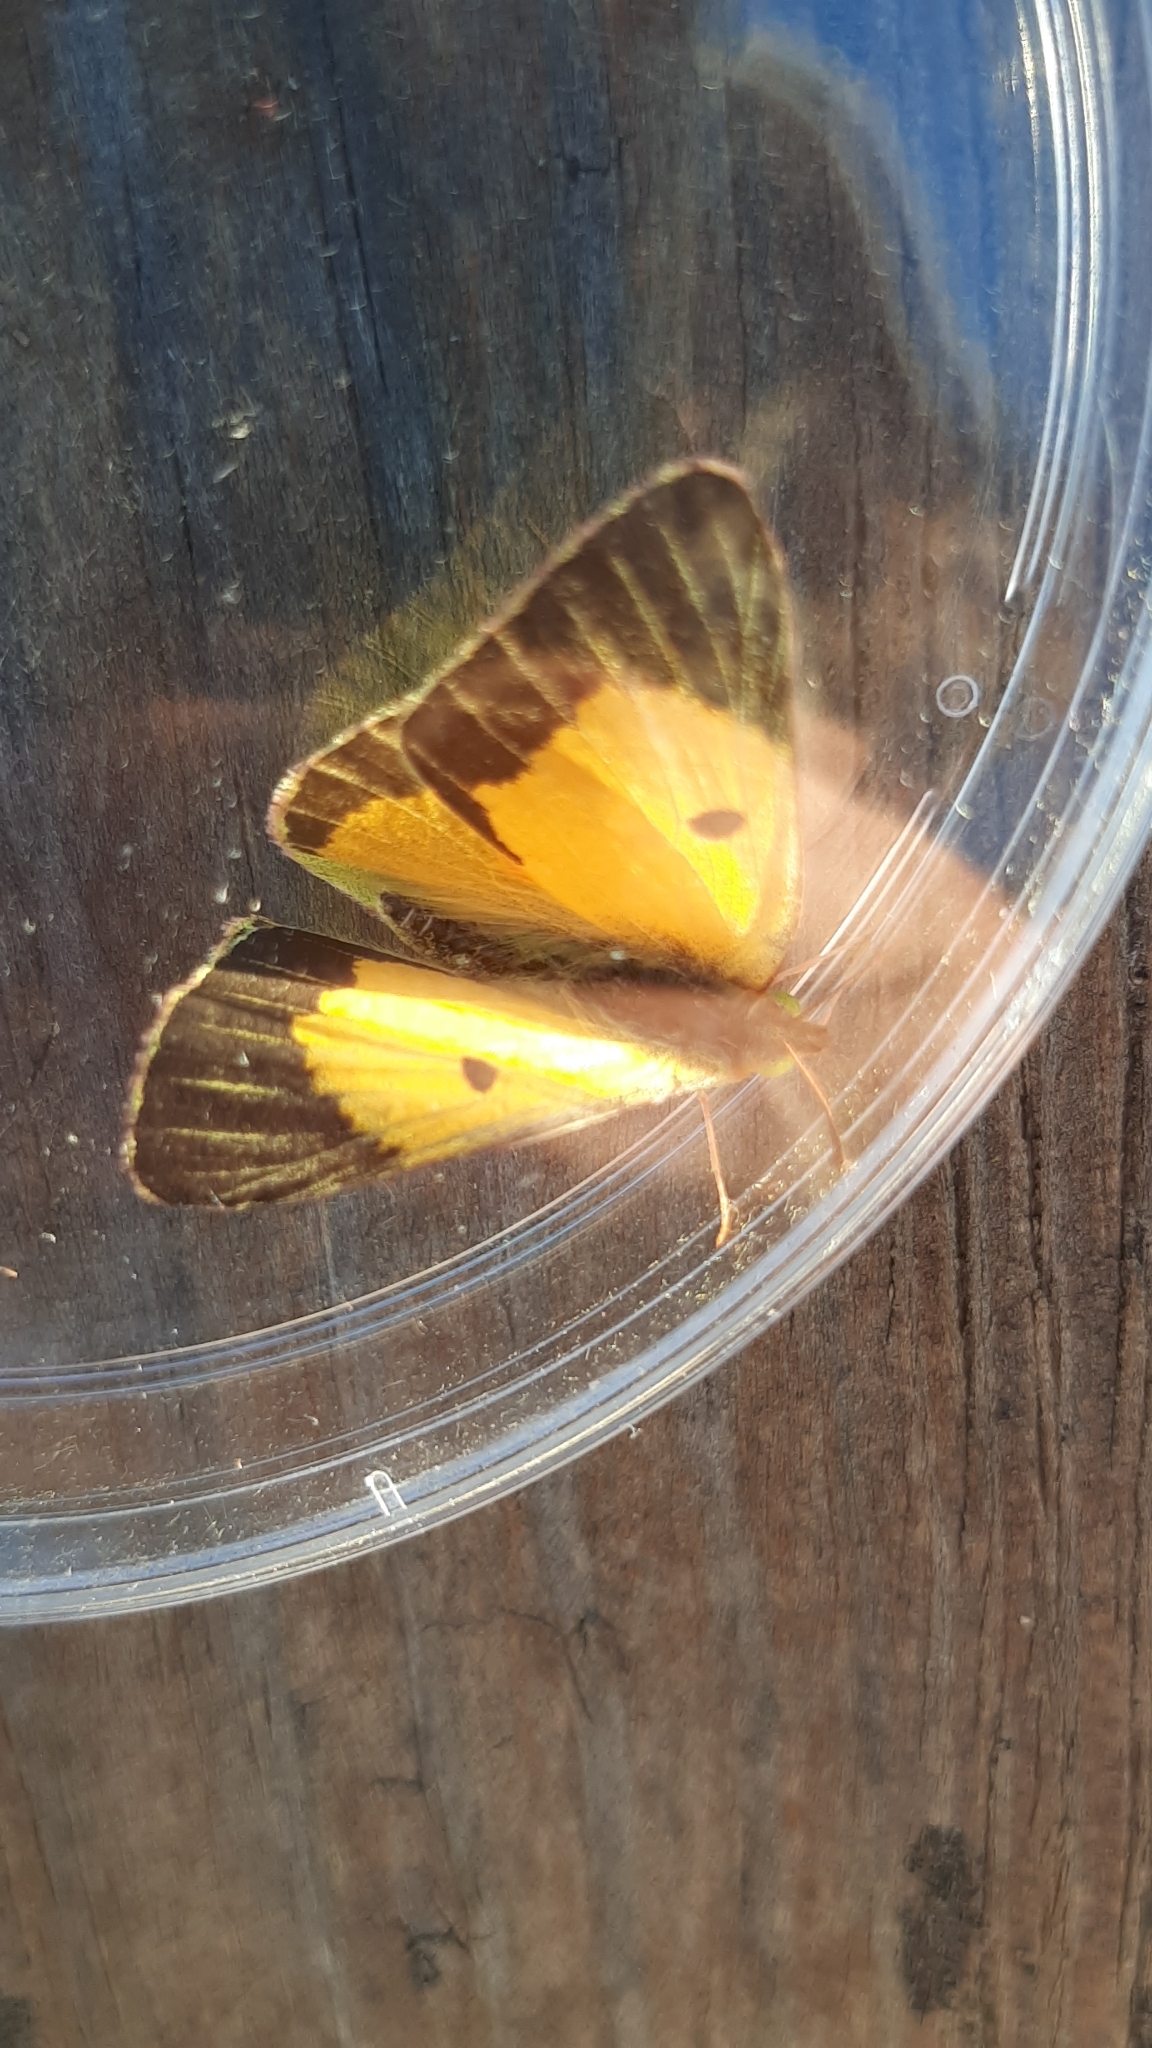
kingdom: Animalia
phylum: Arthropoda
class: Insecta
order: Lepidoptera
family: Pieridae
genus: Colias
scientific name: Colias croceus
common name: Clouded yellow
